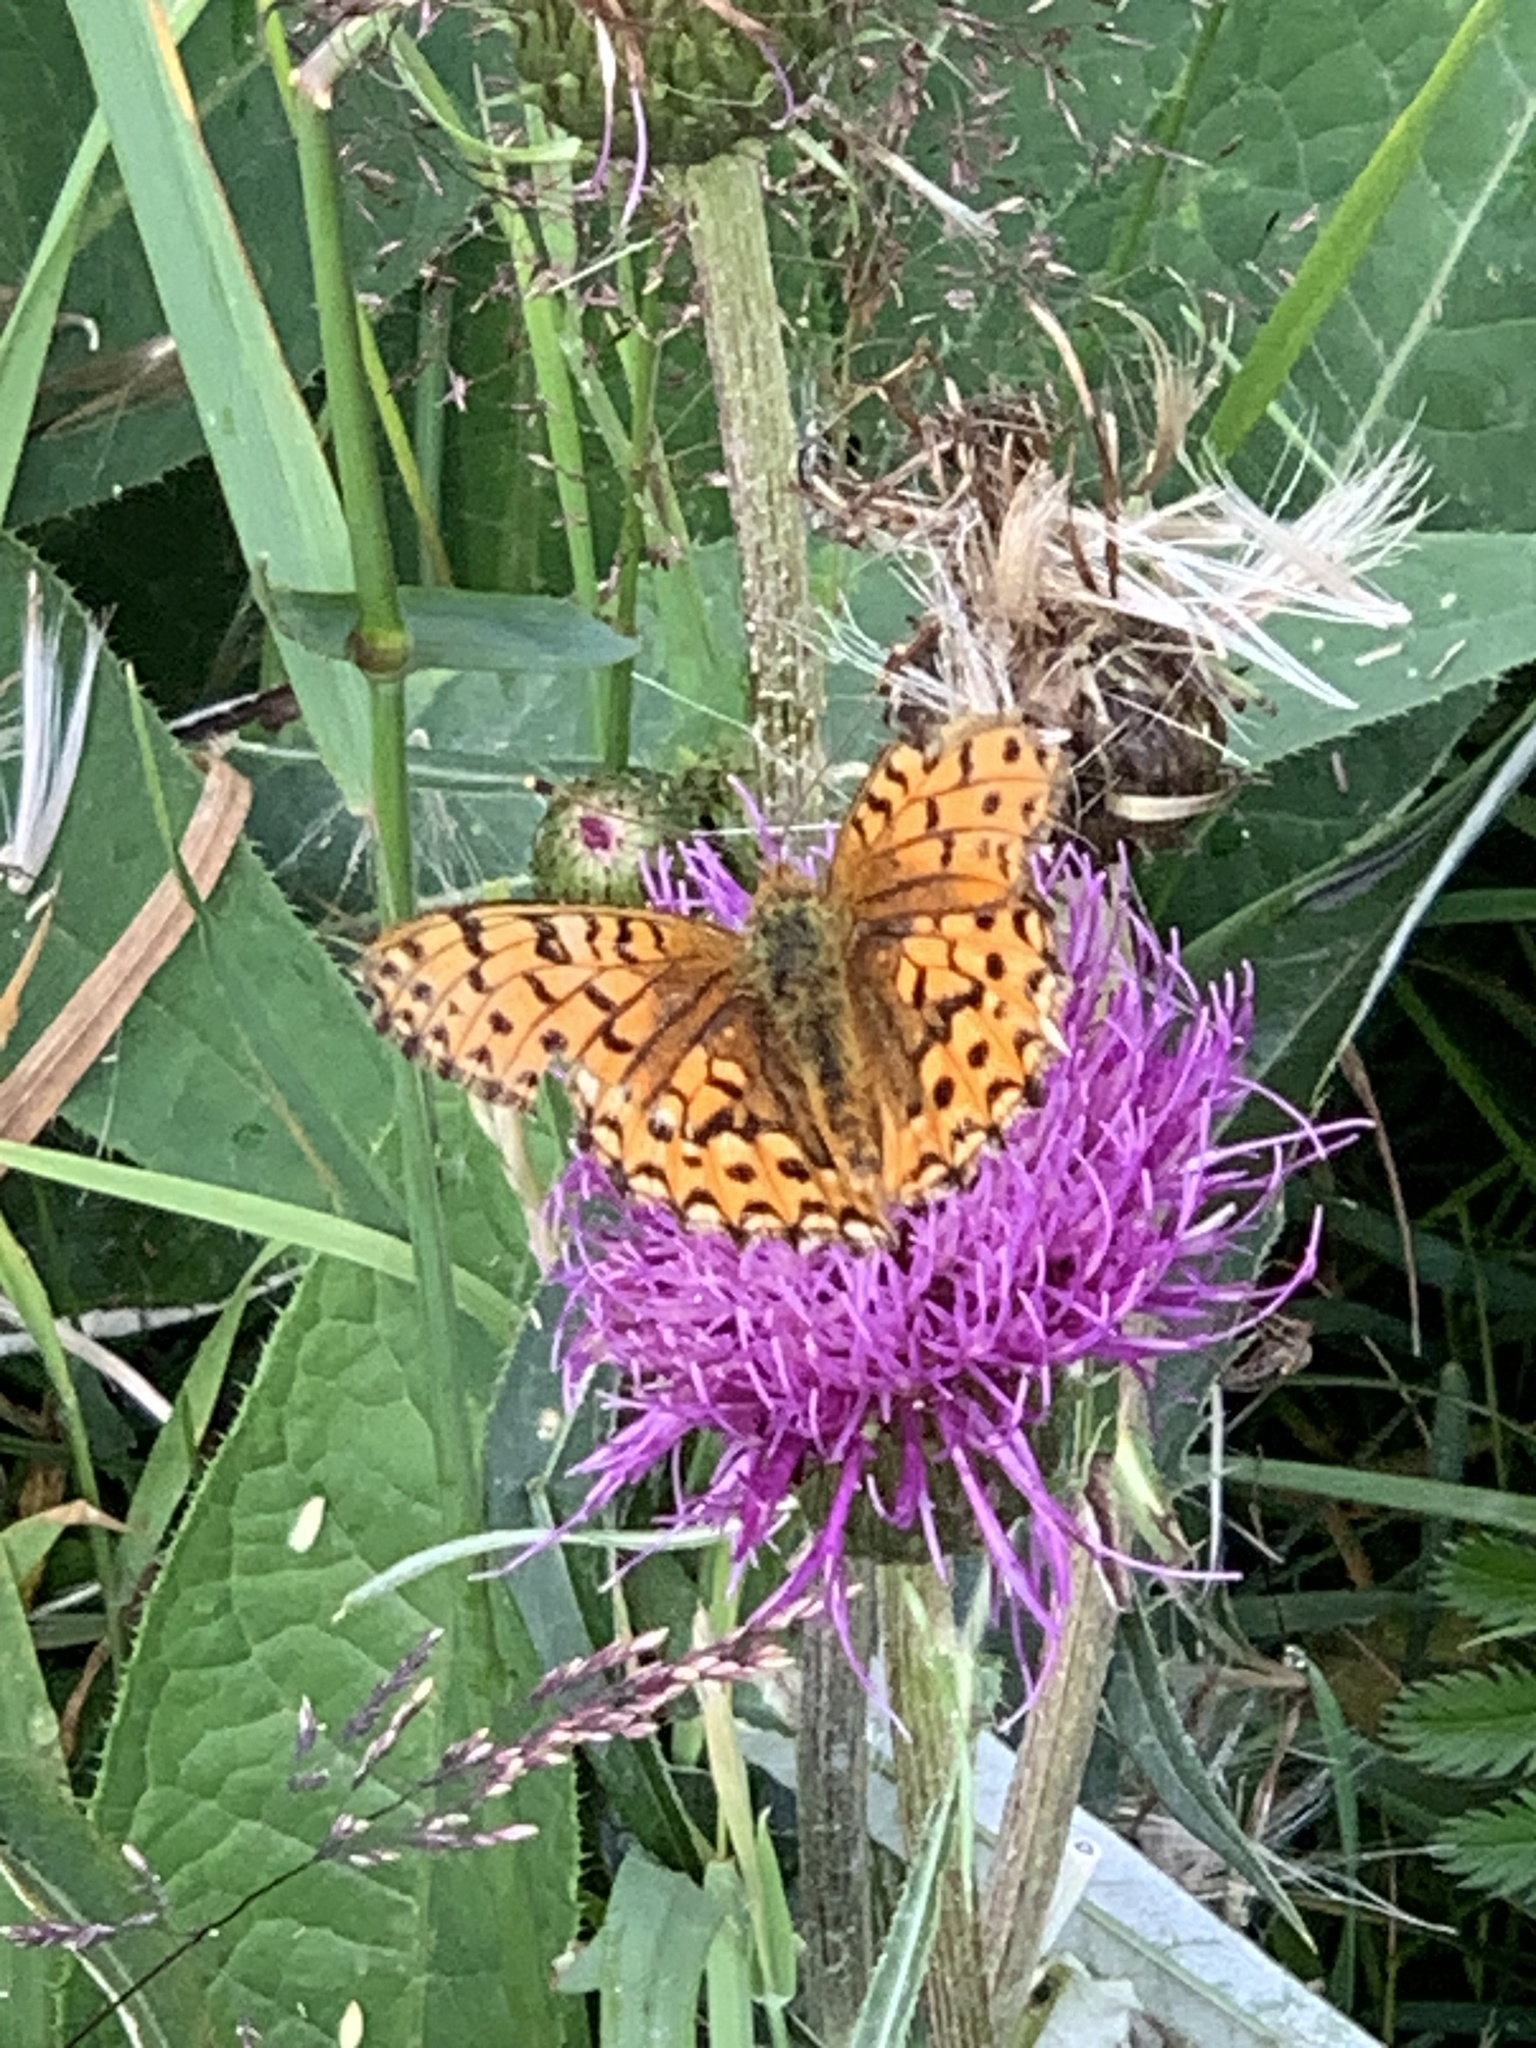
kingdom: Animalia
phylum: Arthropoda
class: Insecta
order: Lepidoptera
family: Nymphalidae
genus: Speyeria
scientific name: Speyeria aglaja
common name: Dark green fritillary
